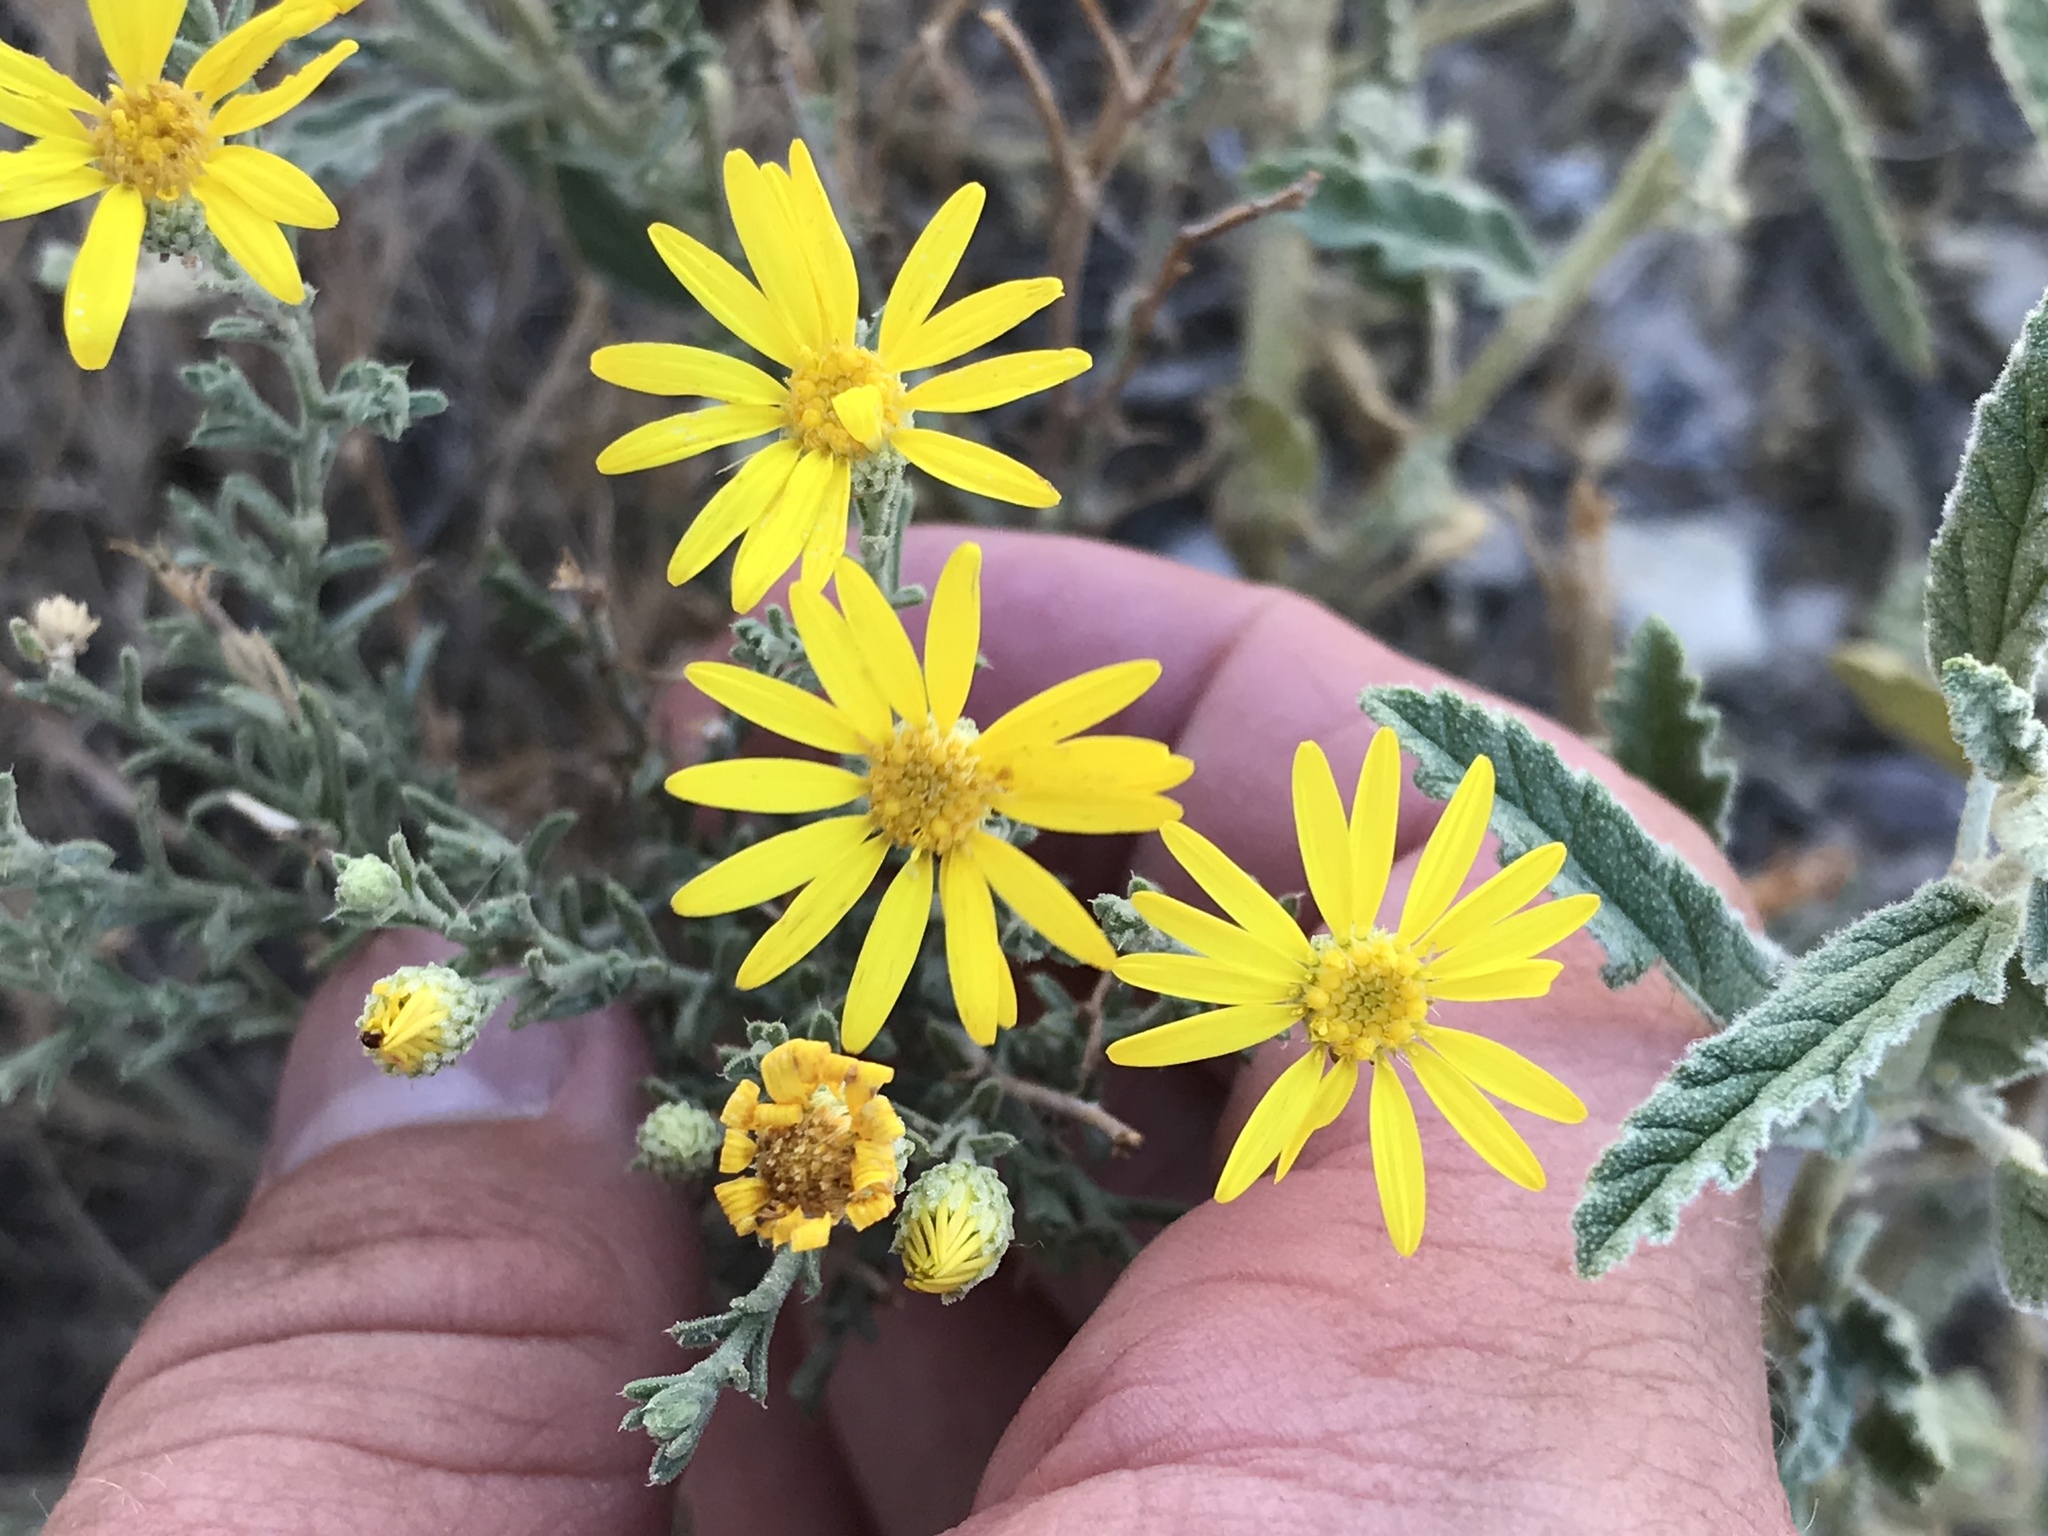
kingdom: Plantae
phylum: Tracheophyta
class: Magnoliopsida
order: Asterales
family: Asteraceae
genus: Xanthisma
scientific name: Xanthisma spinulosum
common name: Spiny goldenweed
